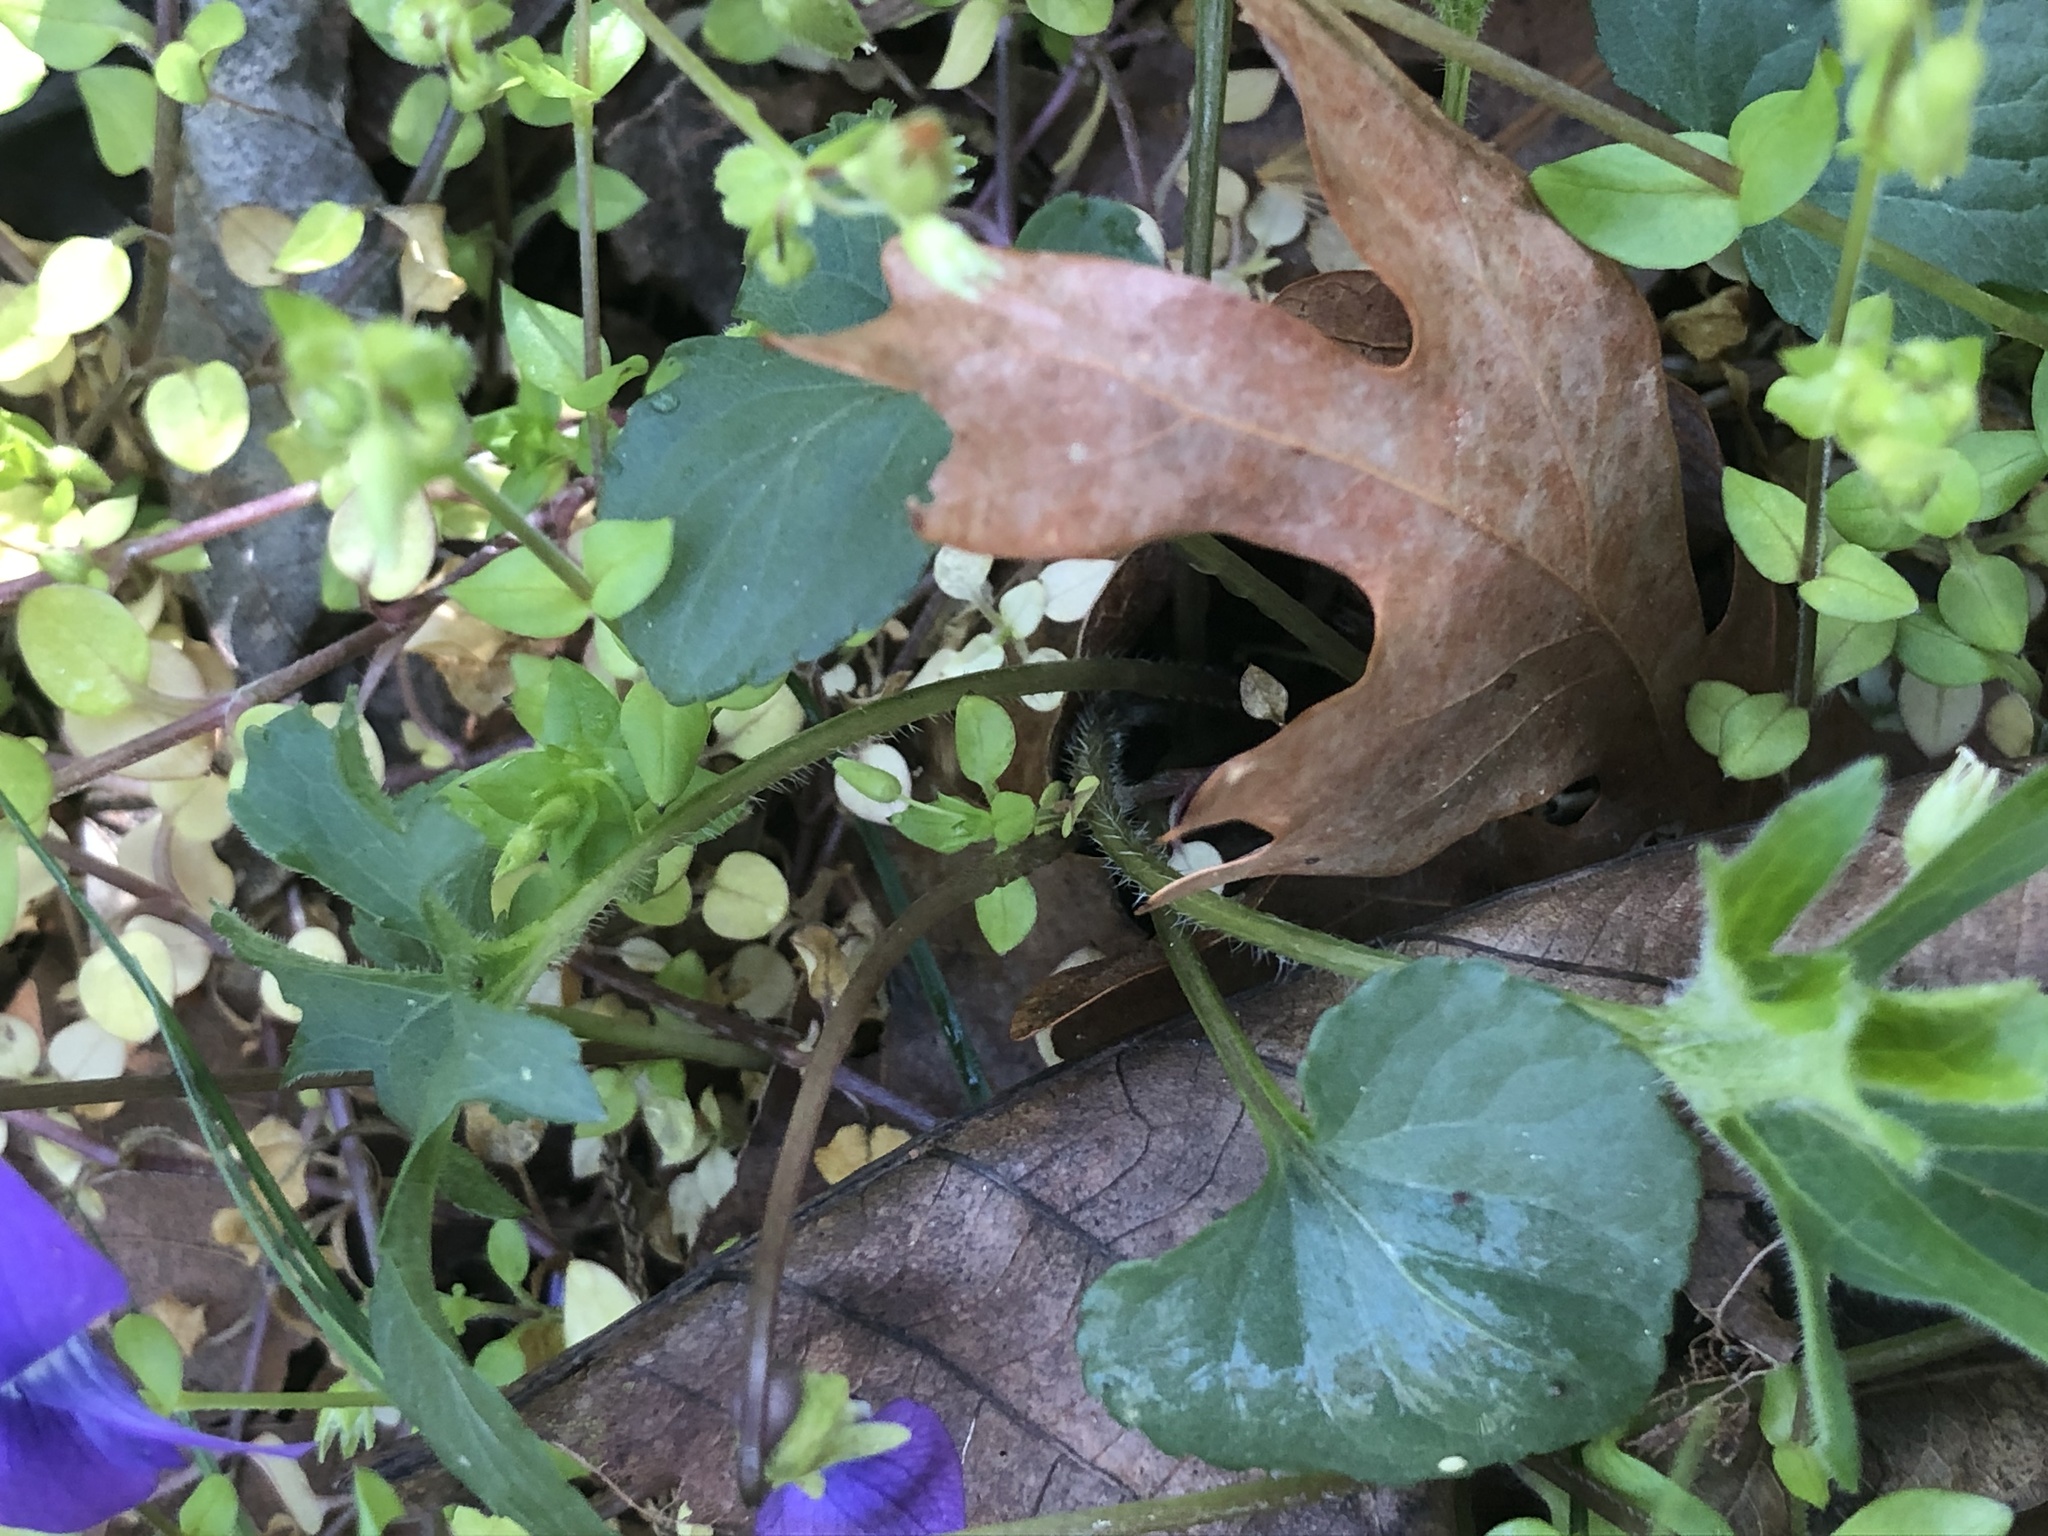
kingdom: Plantae
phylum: Tracheophyta
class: Magnoliopsida
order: Malpighiales
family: Violaceae
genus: Viola
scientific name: Viola palmata
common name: Early blue violet
